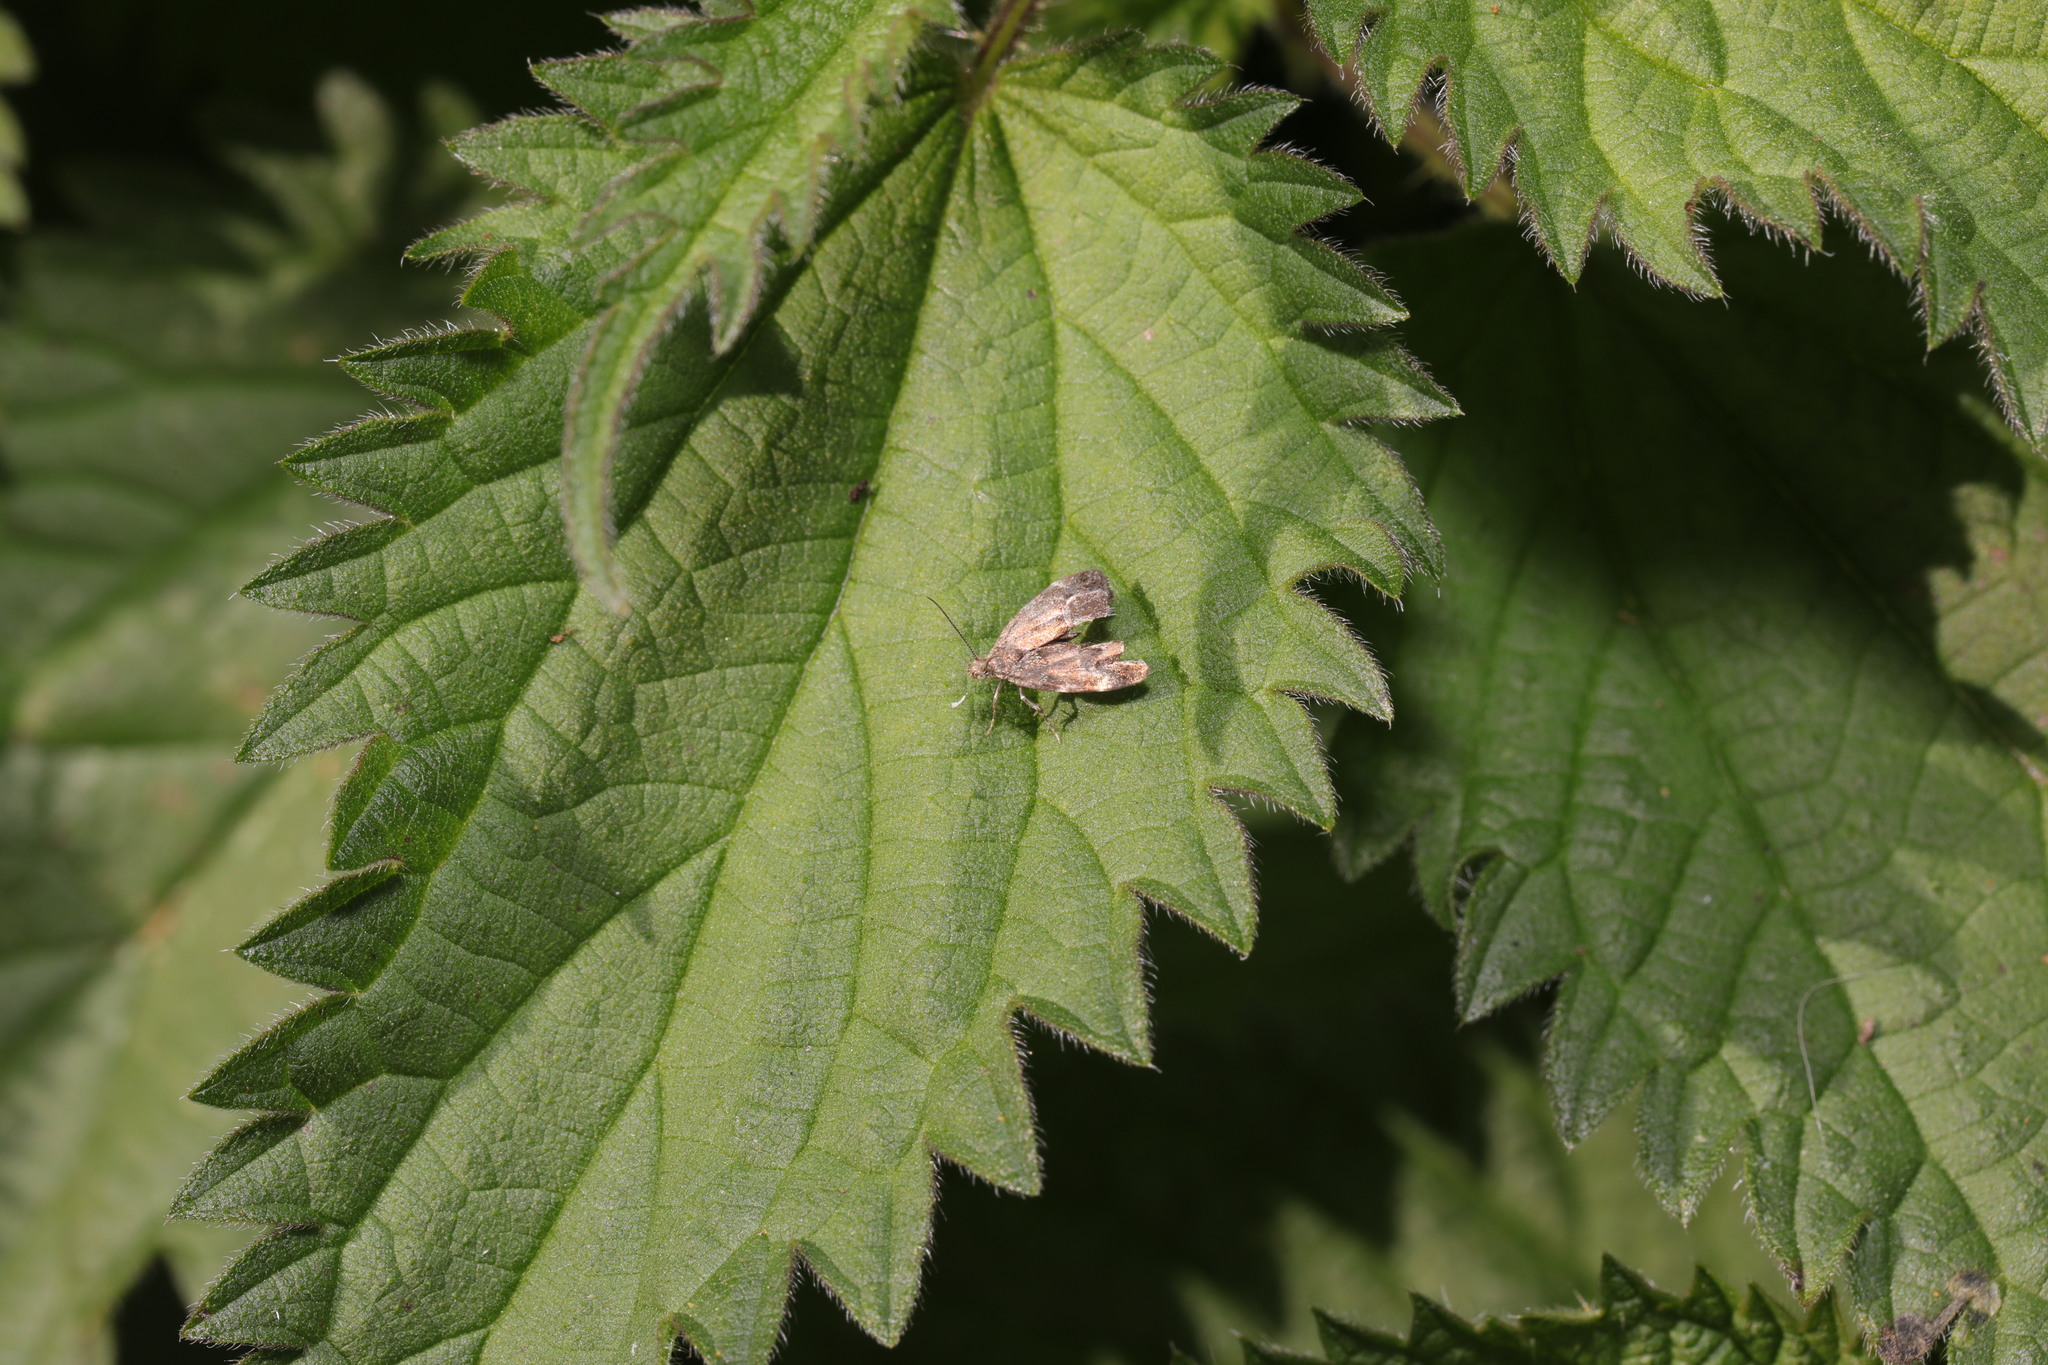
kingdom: Animalia
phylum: Arthropoda
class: Insecta
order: Lepidoptera
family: Choreutidae
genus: Anthophila
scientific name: Anthophila fabriciana
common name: Nettle-tap
